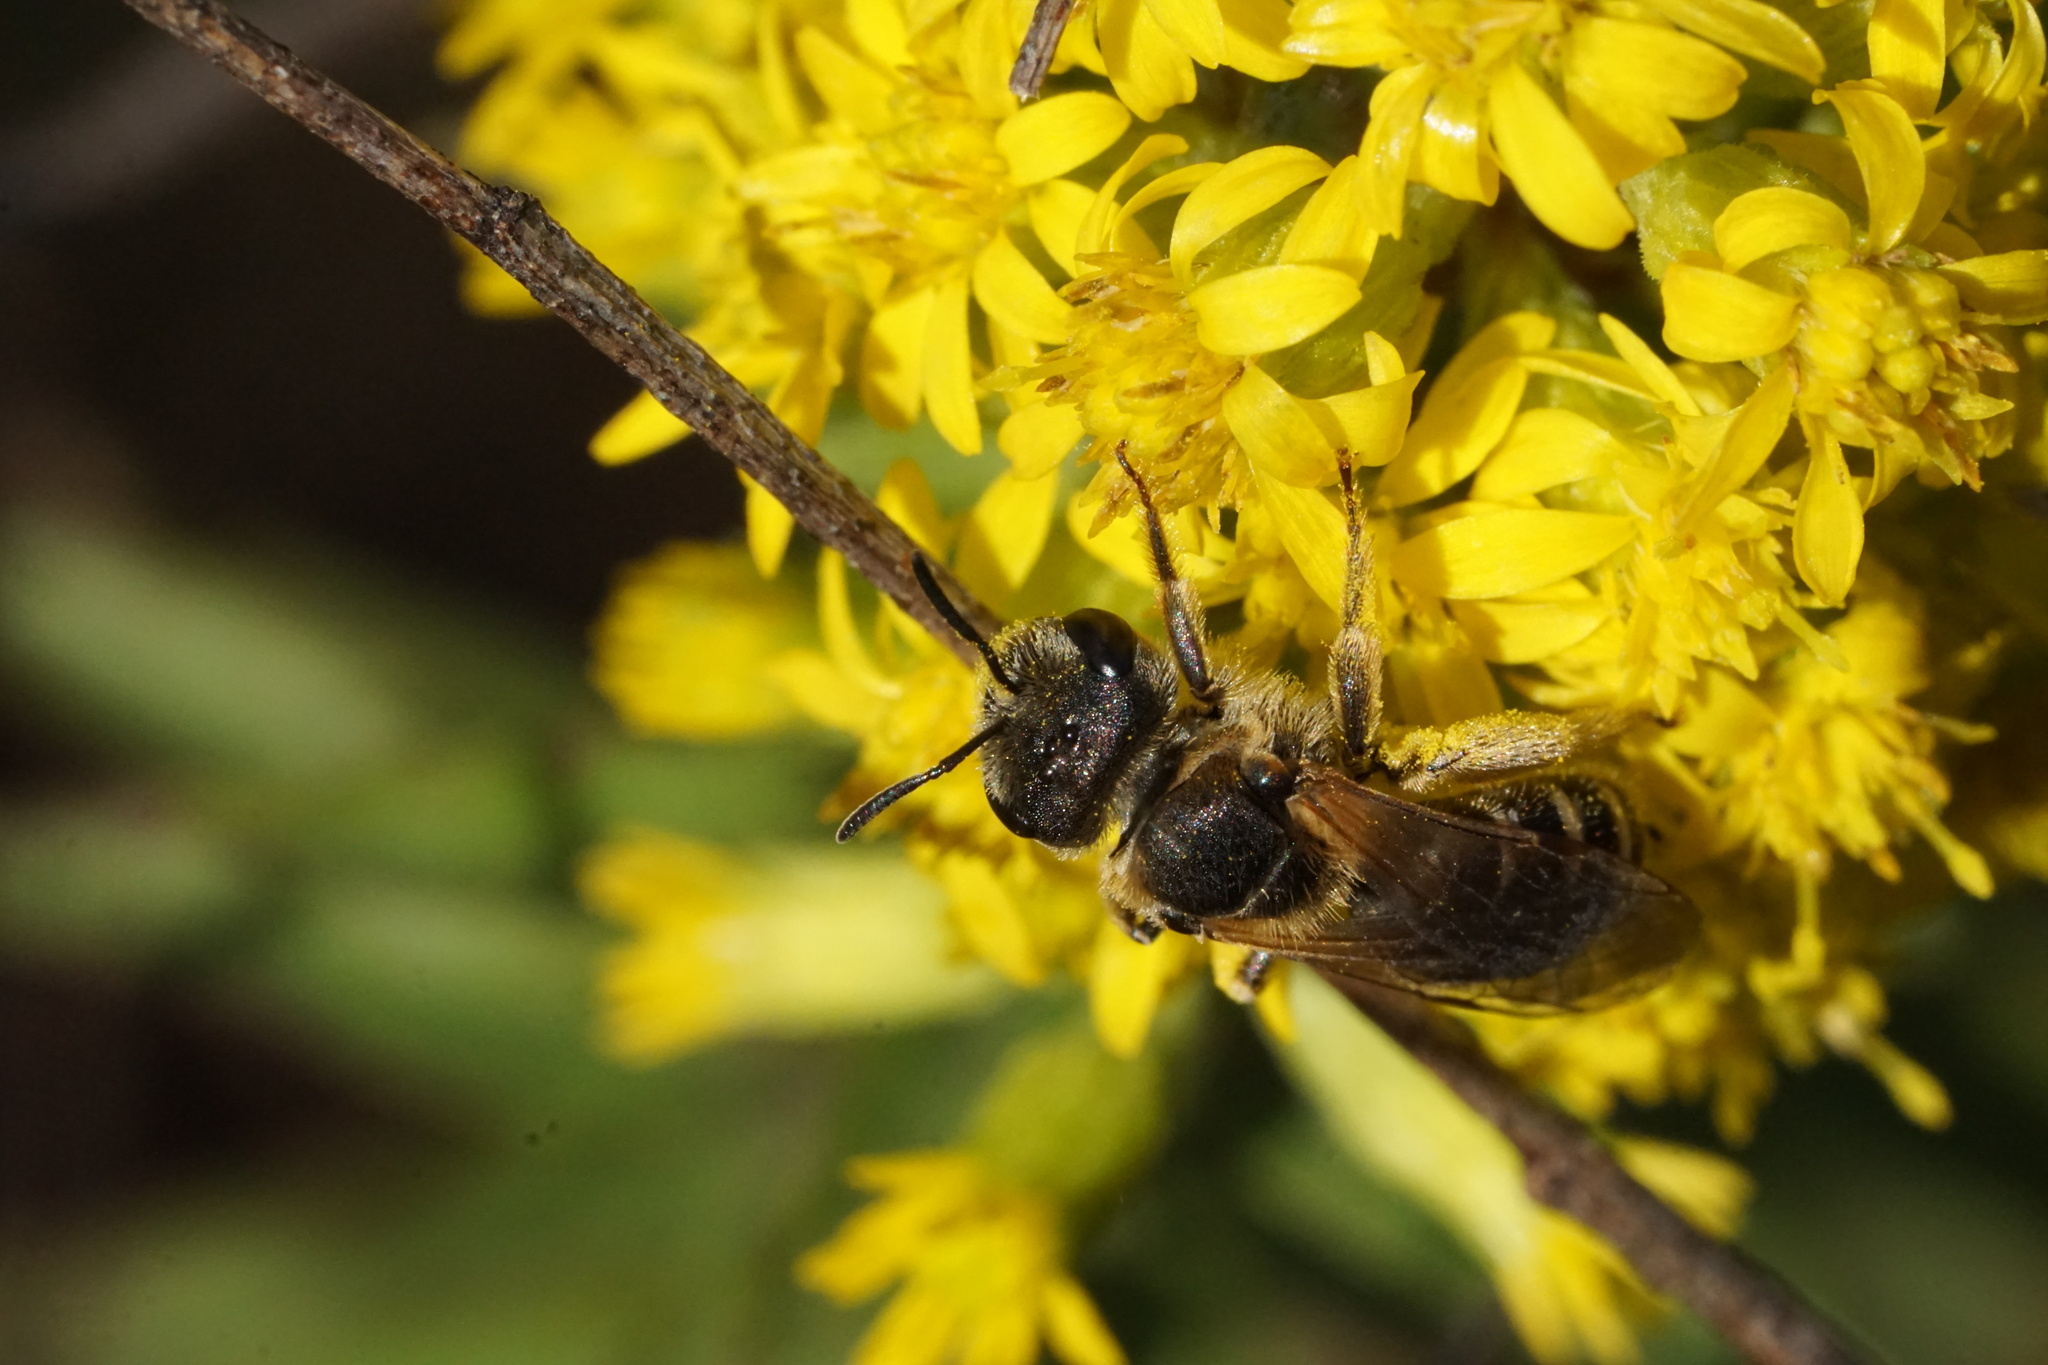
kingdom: Animalia
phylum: Arthropoda
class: Insecta
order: Hymenoptera
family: Halictidae
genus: Halictus
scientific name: Halictus ligatus
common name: Ligated furrow bee
